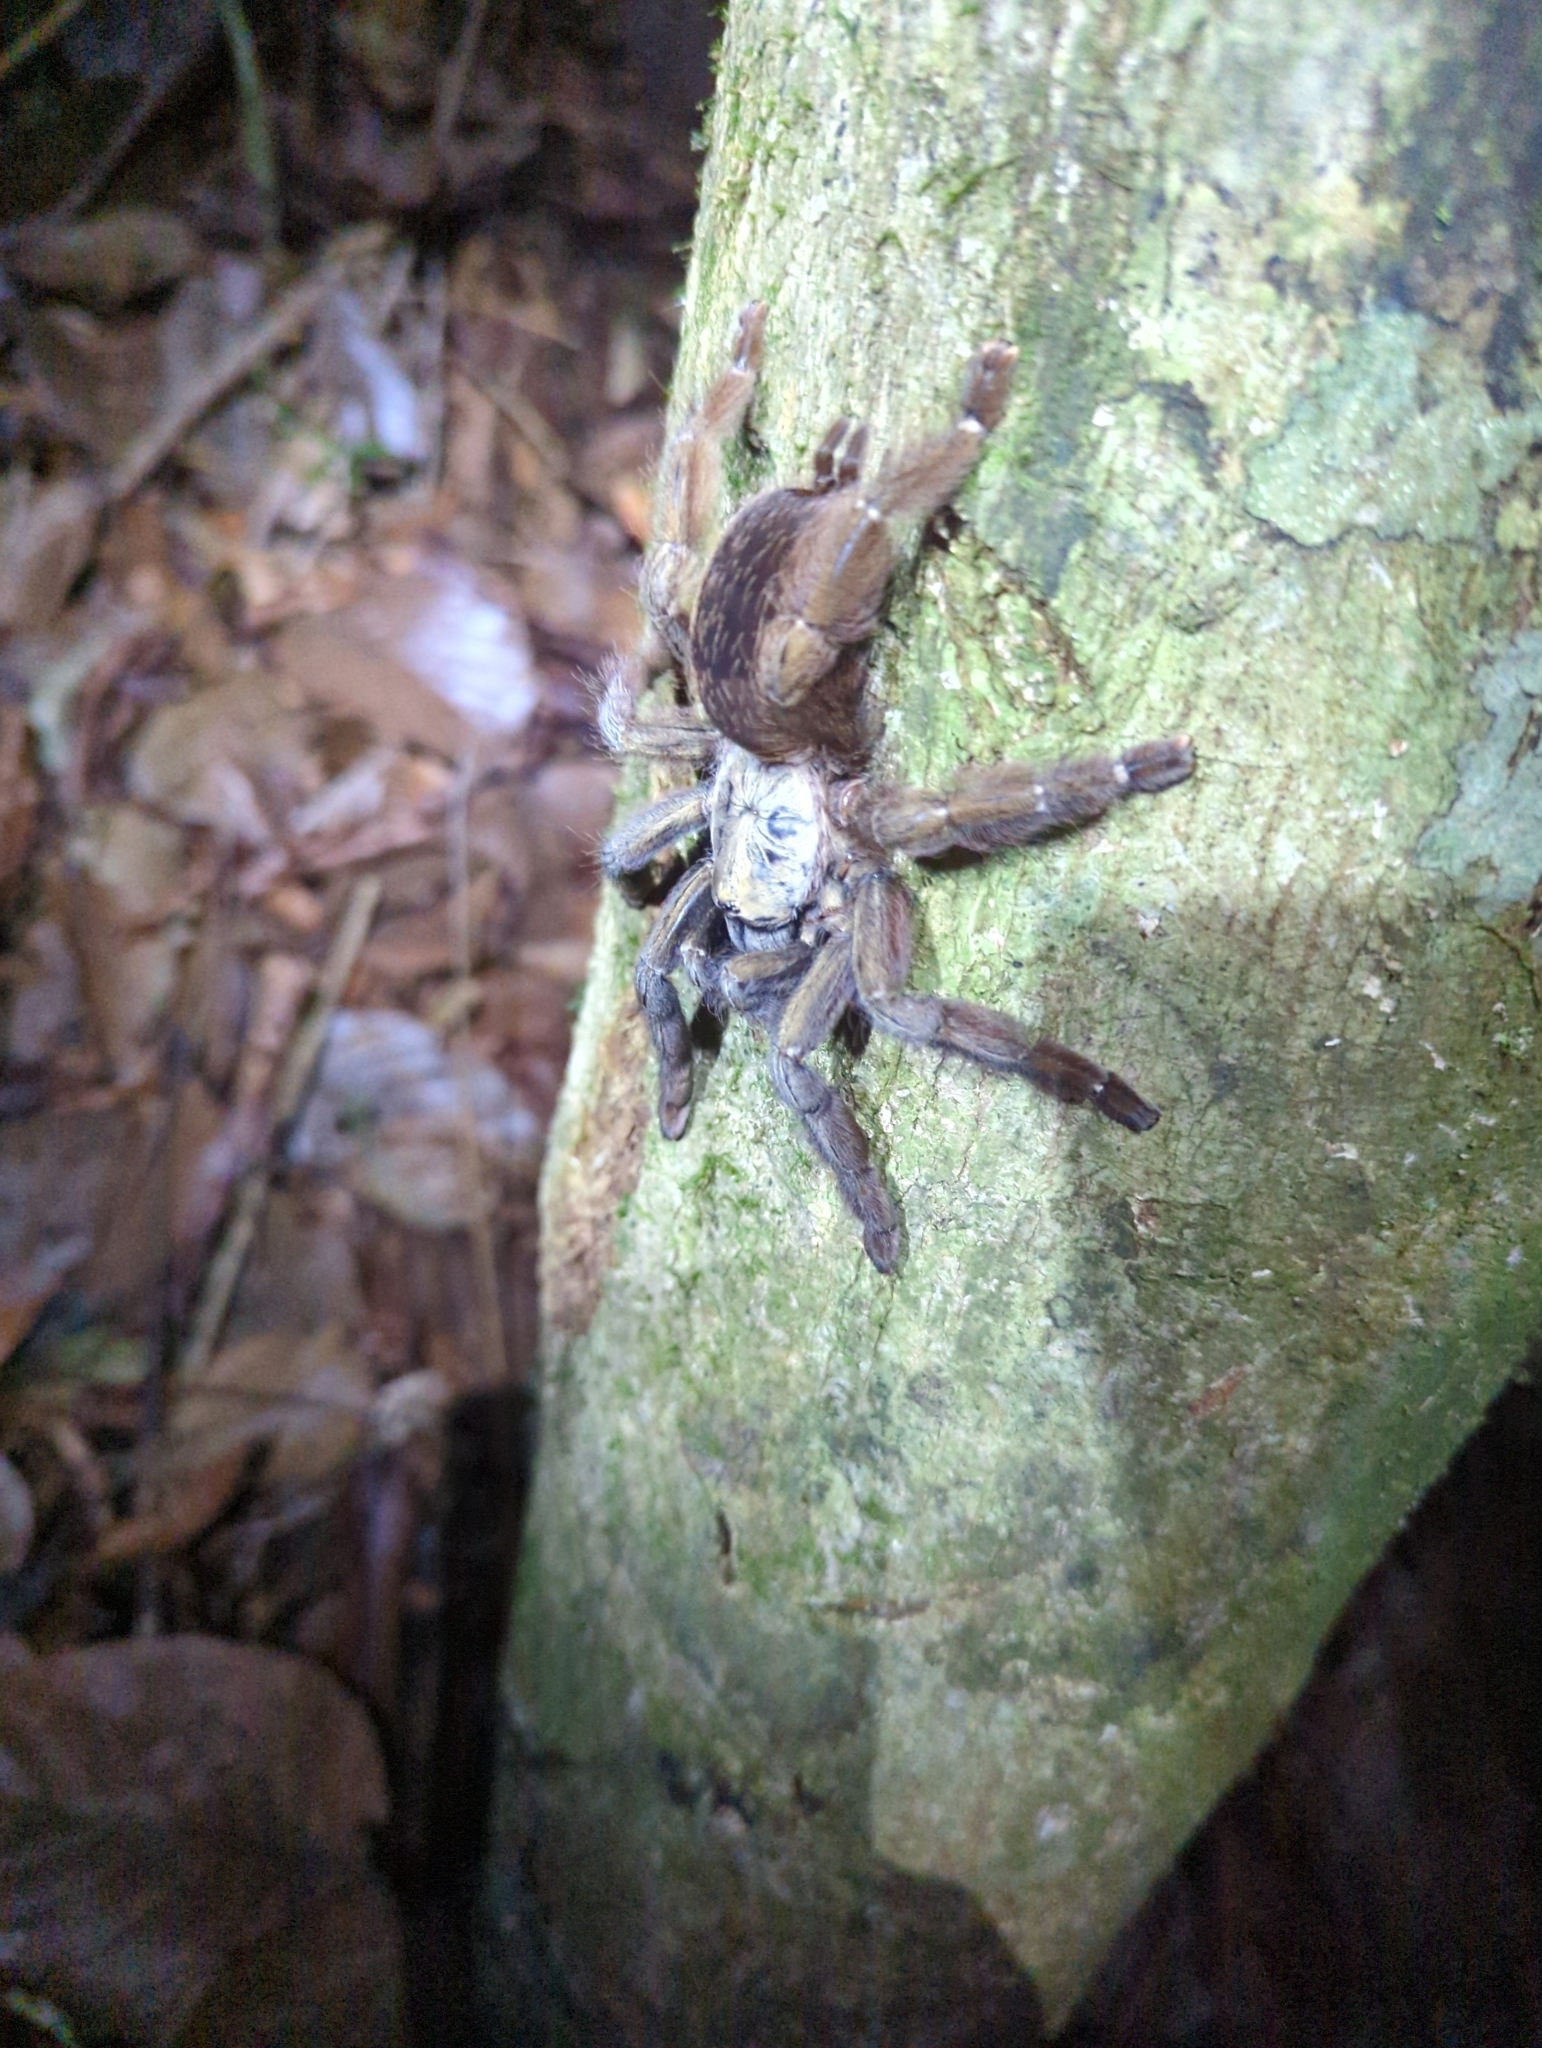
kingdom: Animalia
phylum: Arthropoda
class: Arachnida
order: Araneae
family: Theraphosidae
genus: Psalmopoeus
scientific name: Psalmopoeus reduncus
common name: Tarantula spiders
